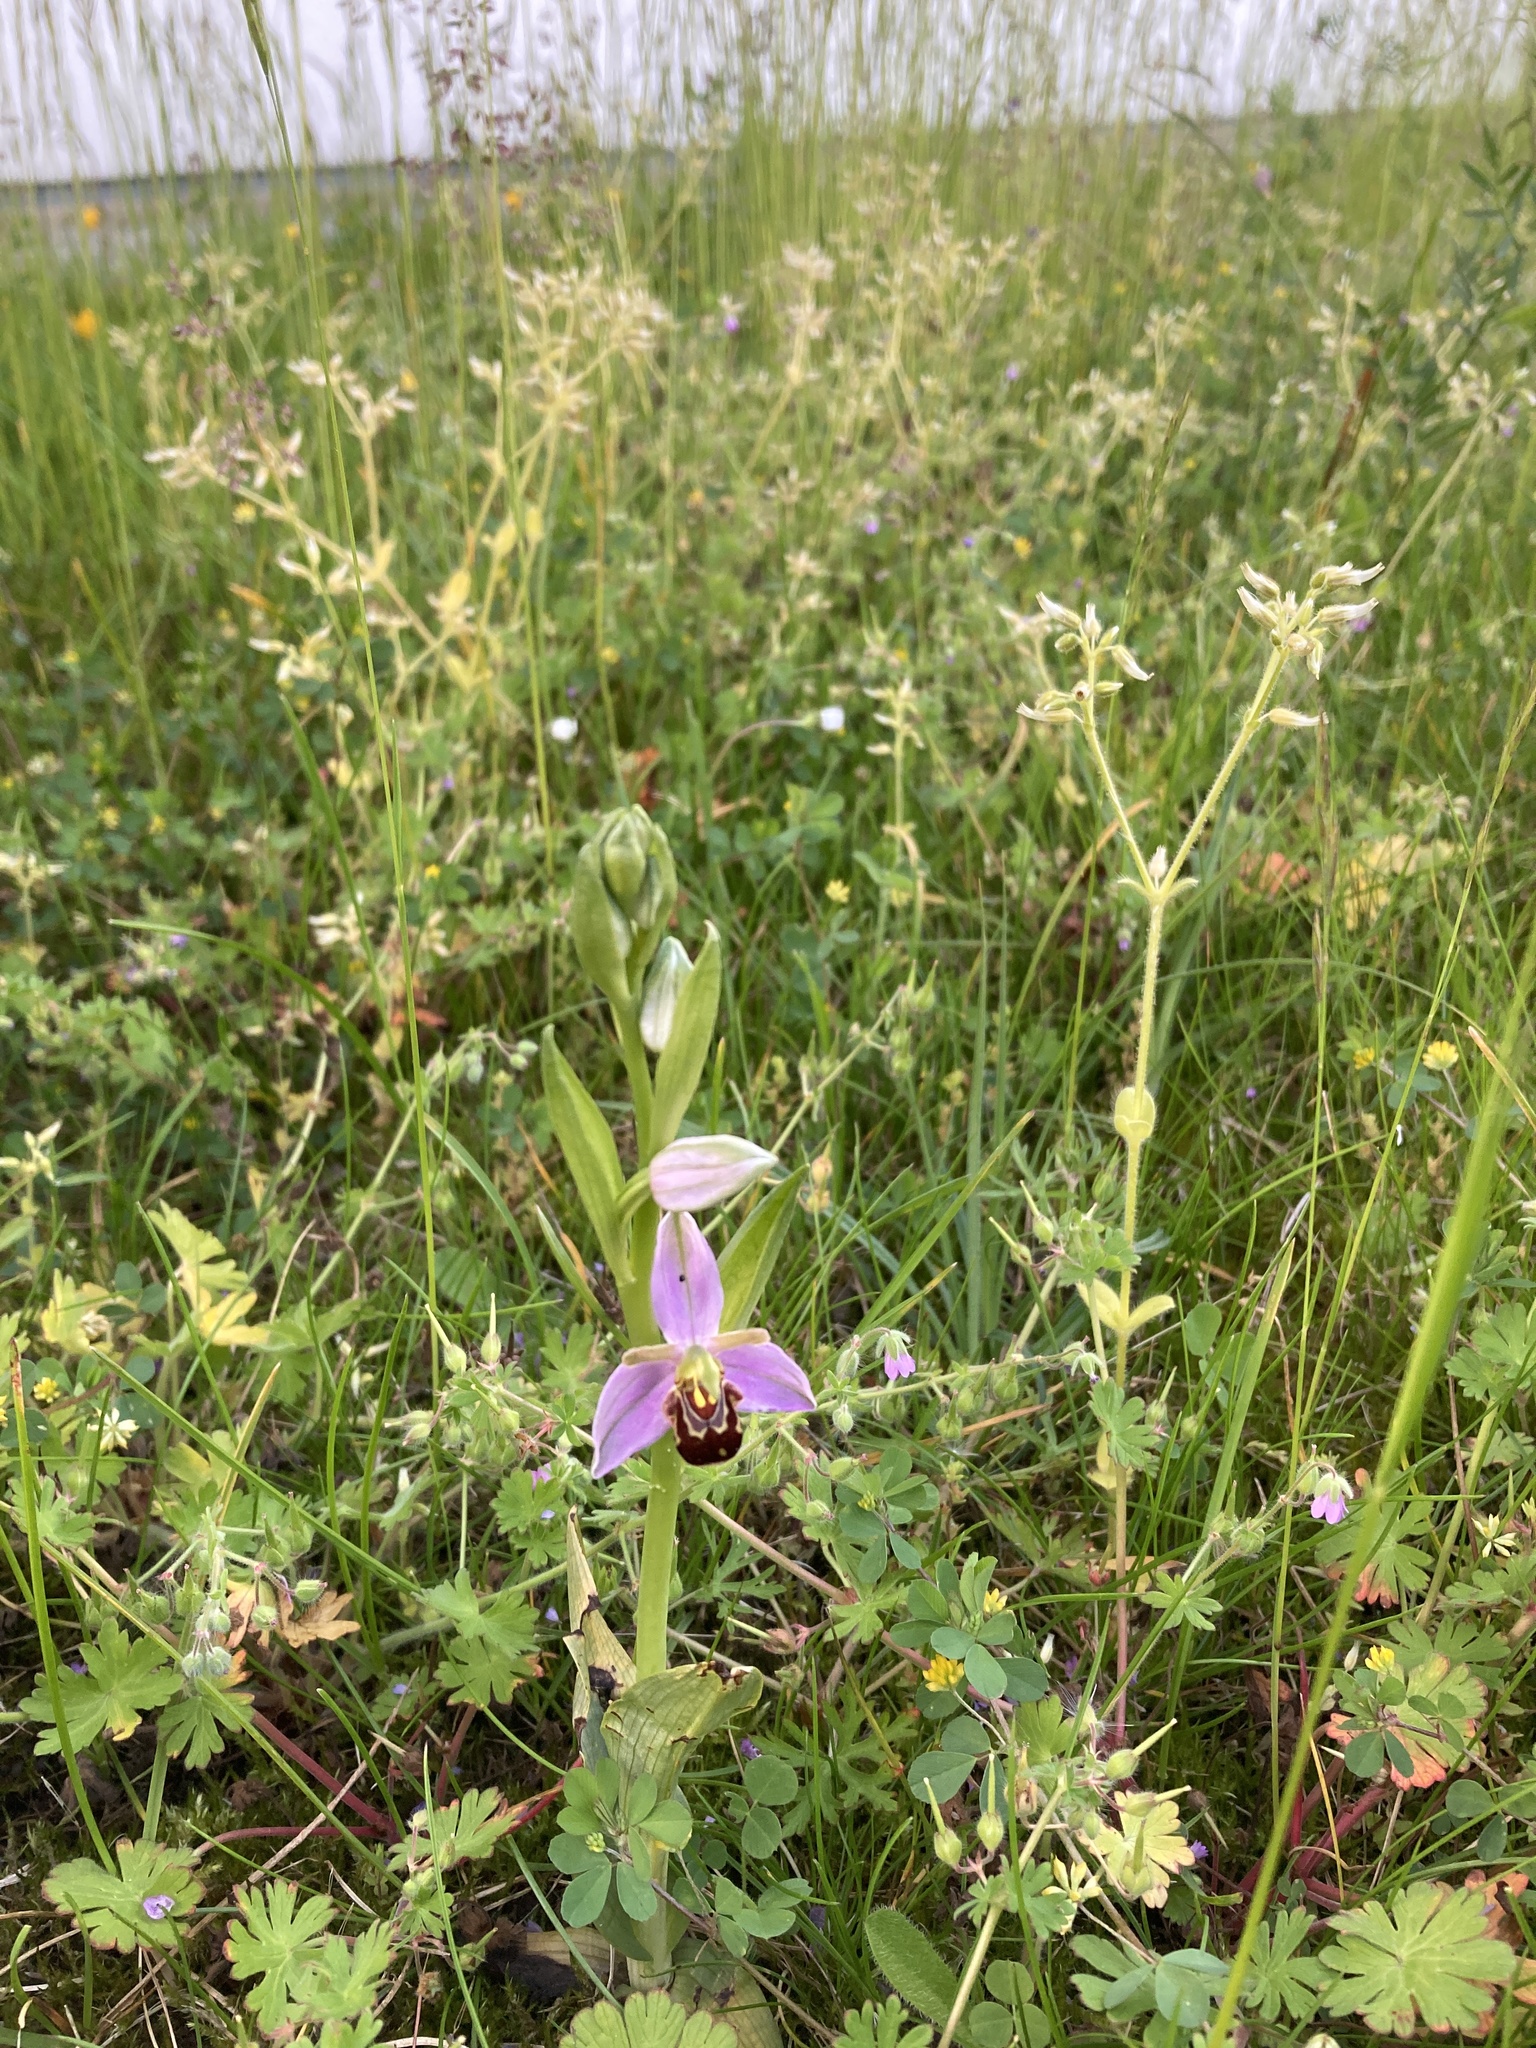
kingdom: Plantae
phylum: Tracheophyta
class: Liliopsida
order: Asparagales
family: Orchidaceae
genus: Ophrys
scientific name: Ophrys apifera
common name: Bee orchid
